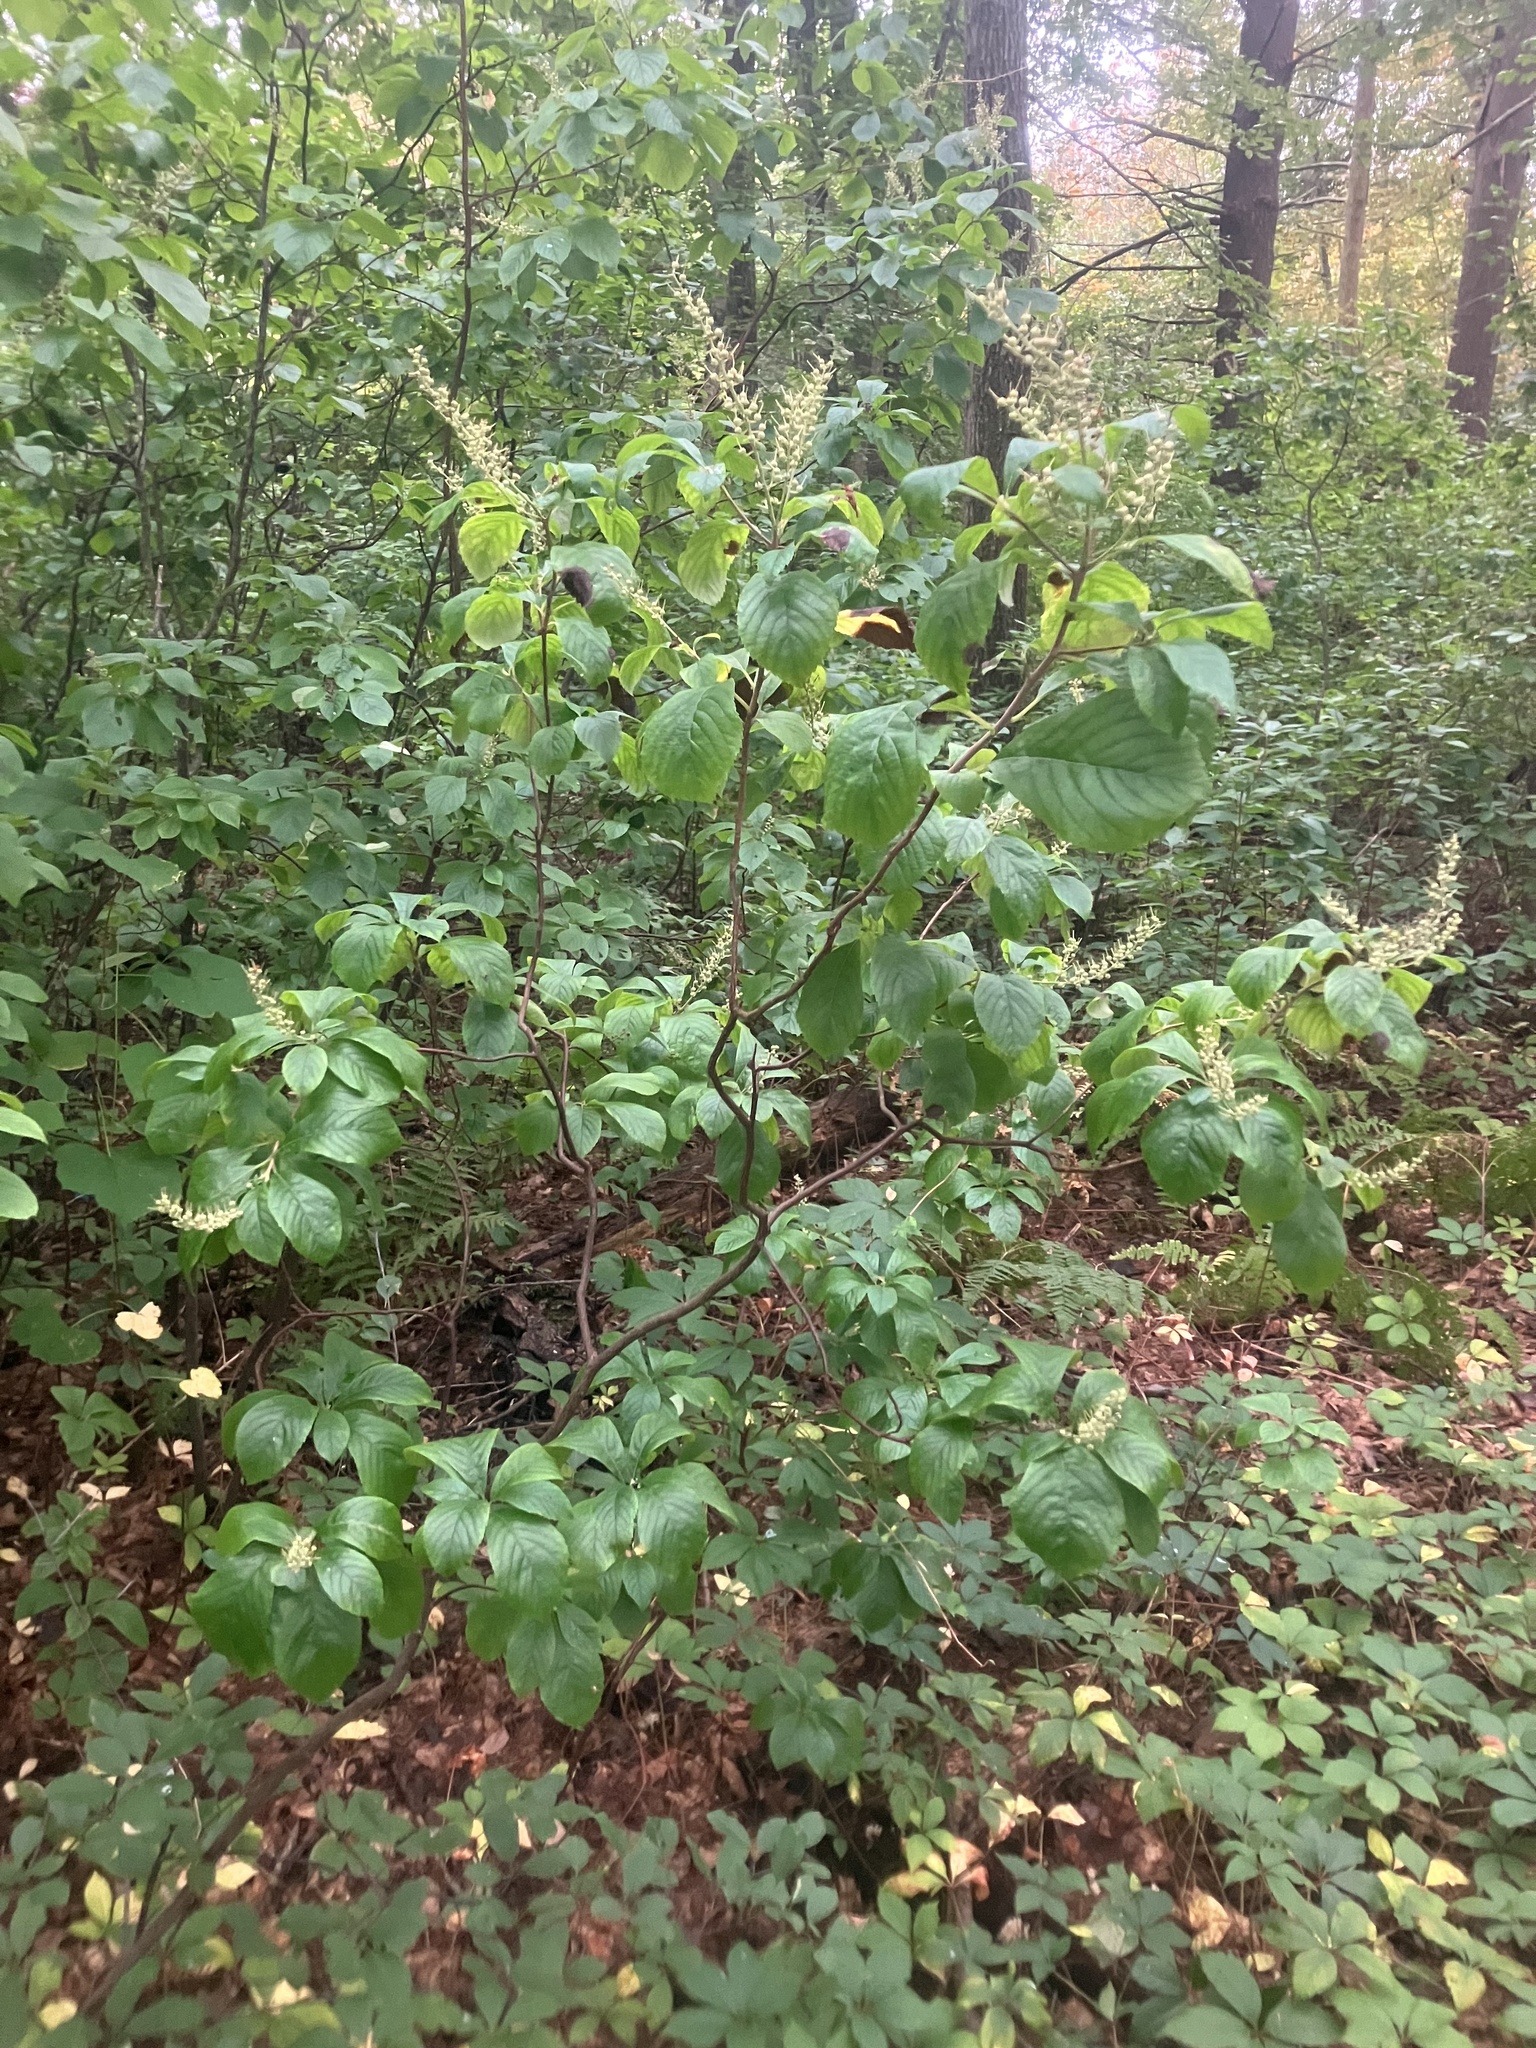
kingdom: Plantae
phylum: Tracheophyta
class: Magnoliopsida
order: Ericales
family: Clethraceae
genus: Clethra
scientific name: Clethra alnifolia
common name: Sweet pepperbush
